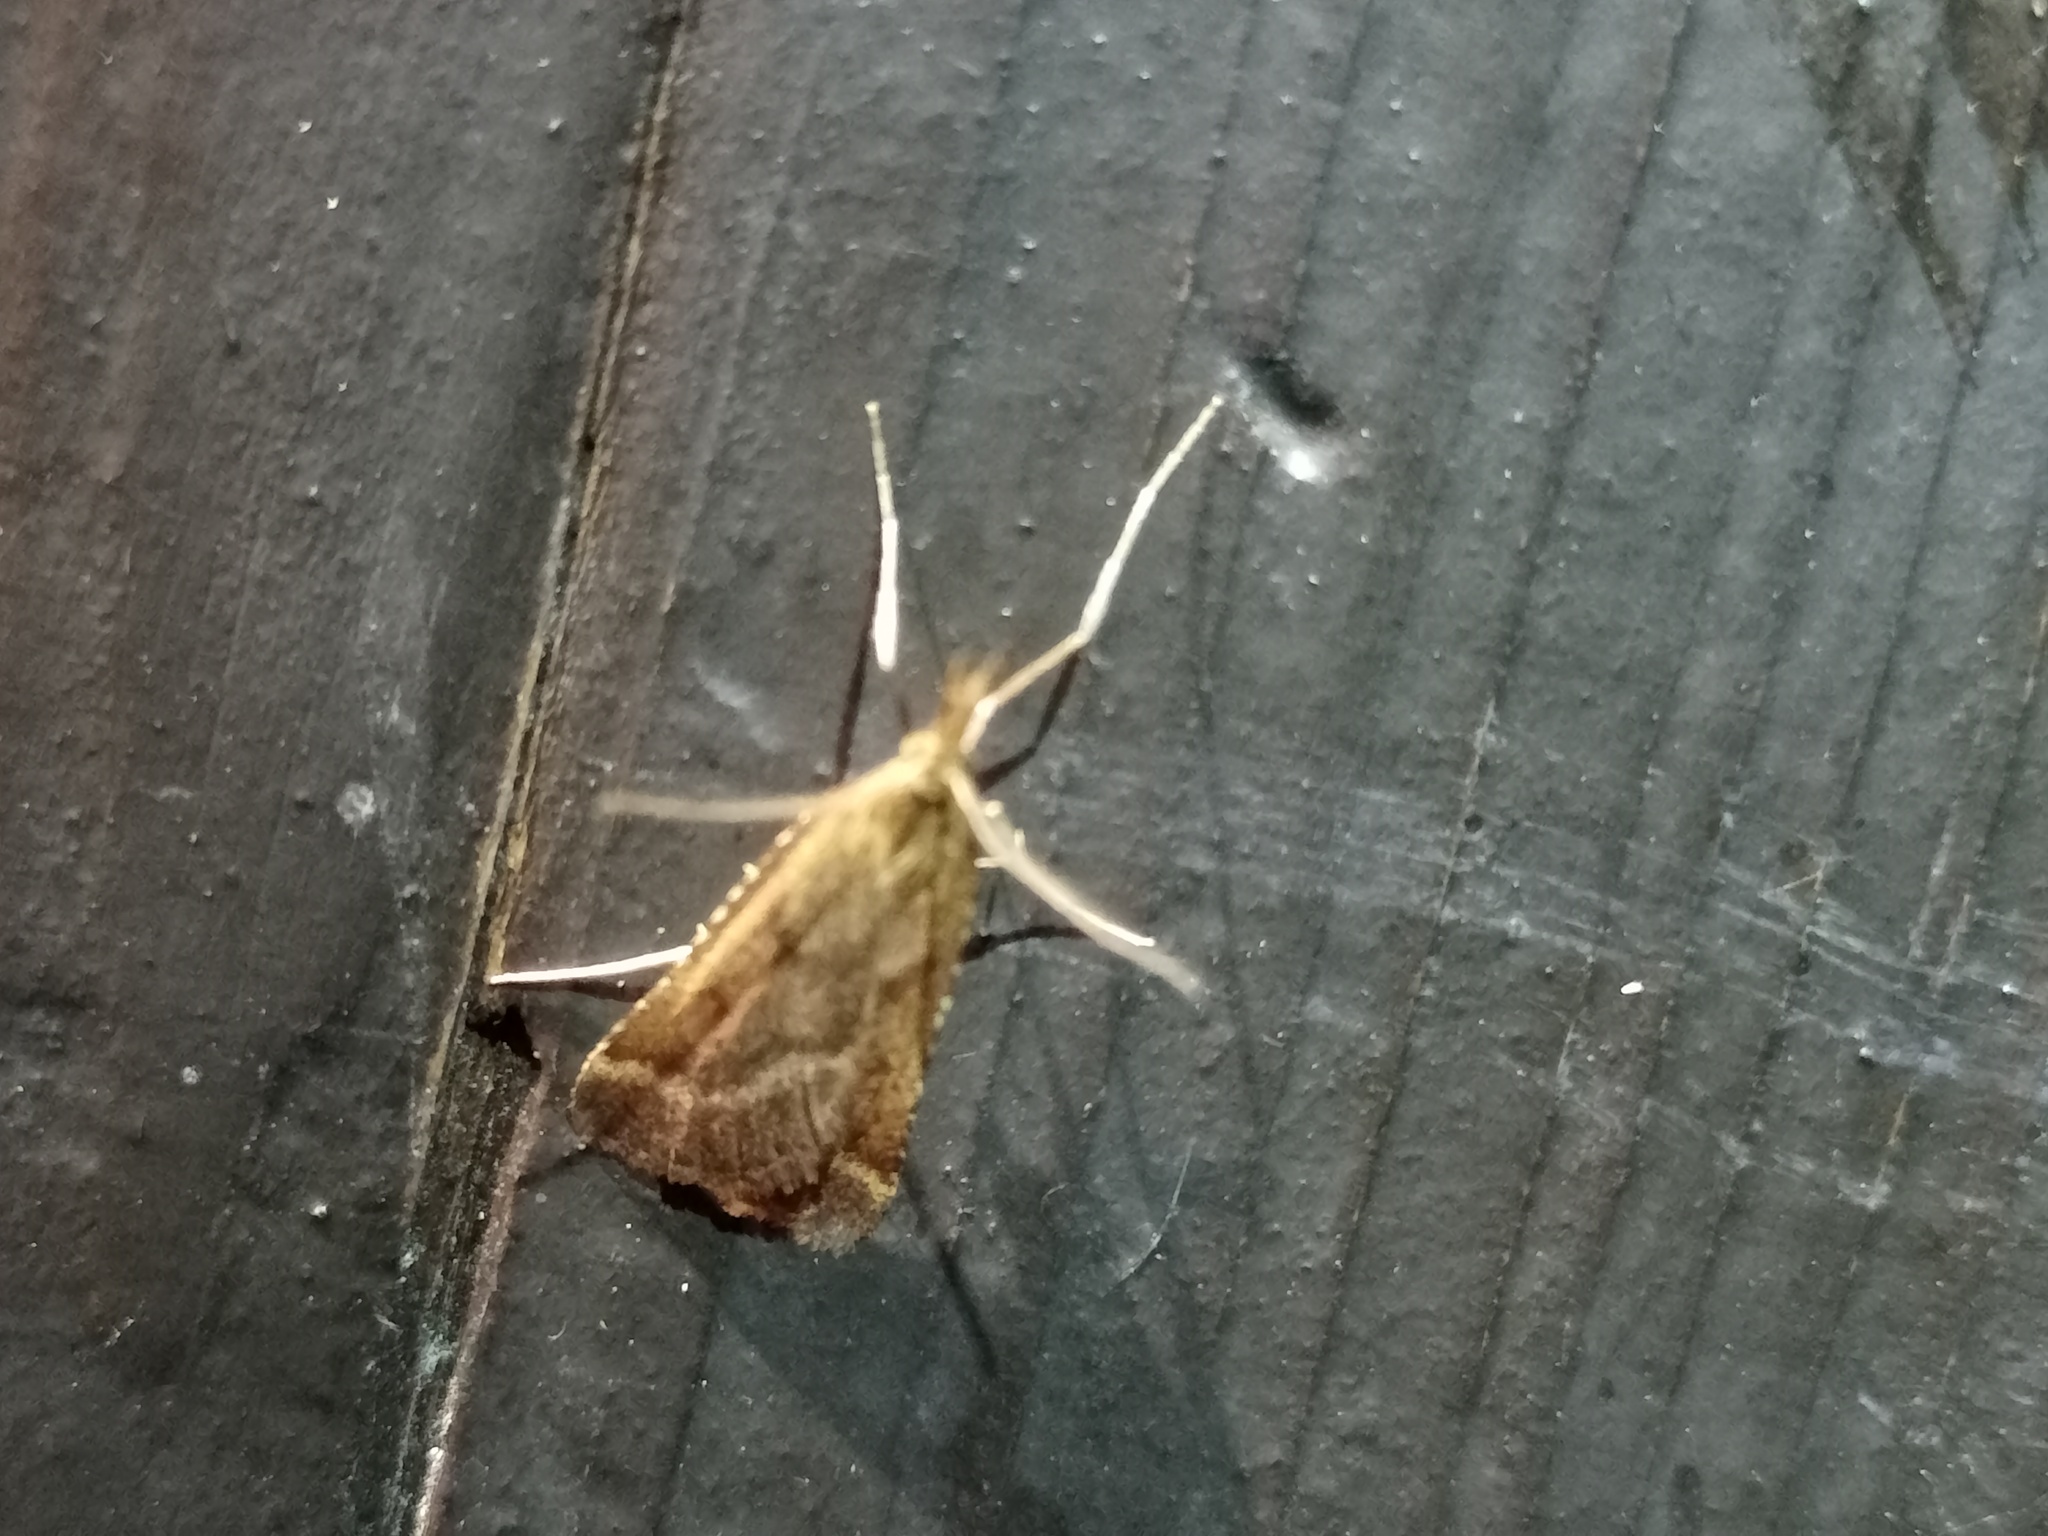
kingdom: Animalia
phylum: Arthropoda
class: Insecta
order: Lepidoptera
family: Pyralidae
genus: Synaphe
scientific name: Synaphe punctalis
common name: Long-legged tabby
